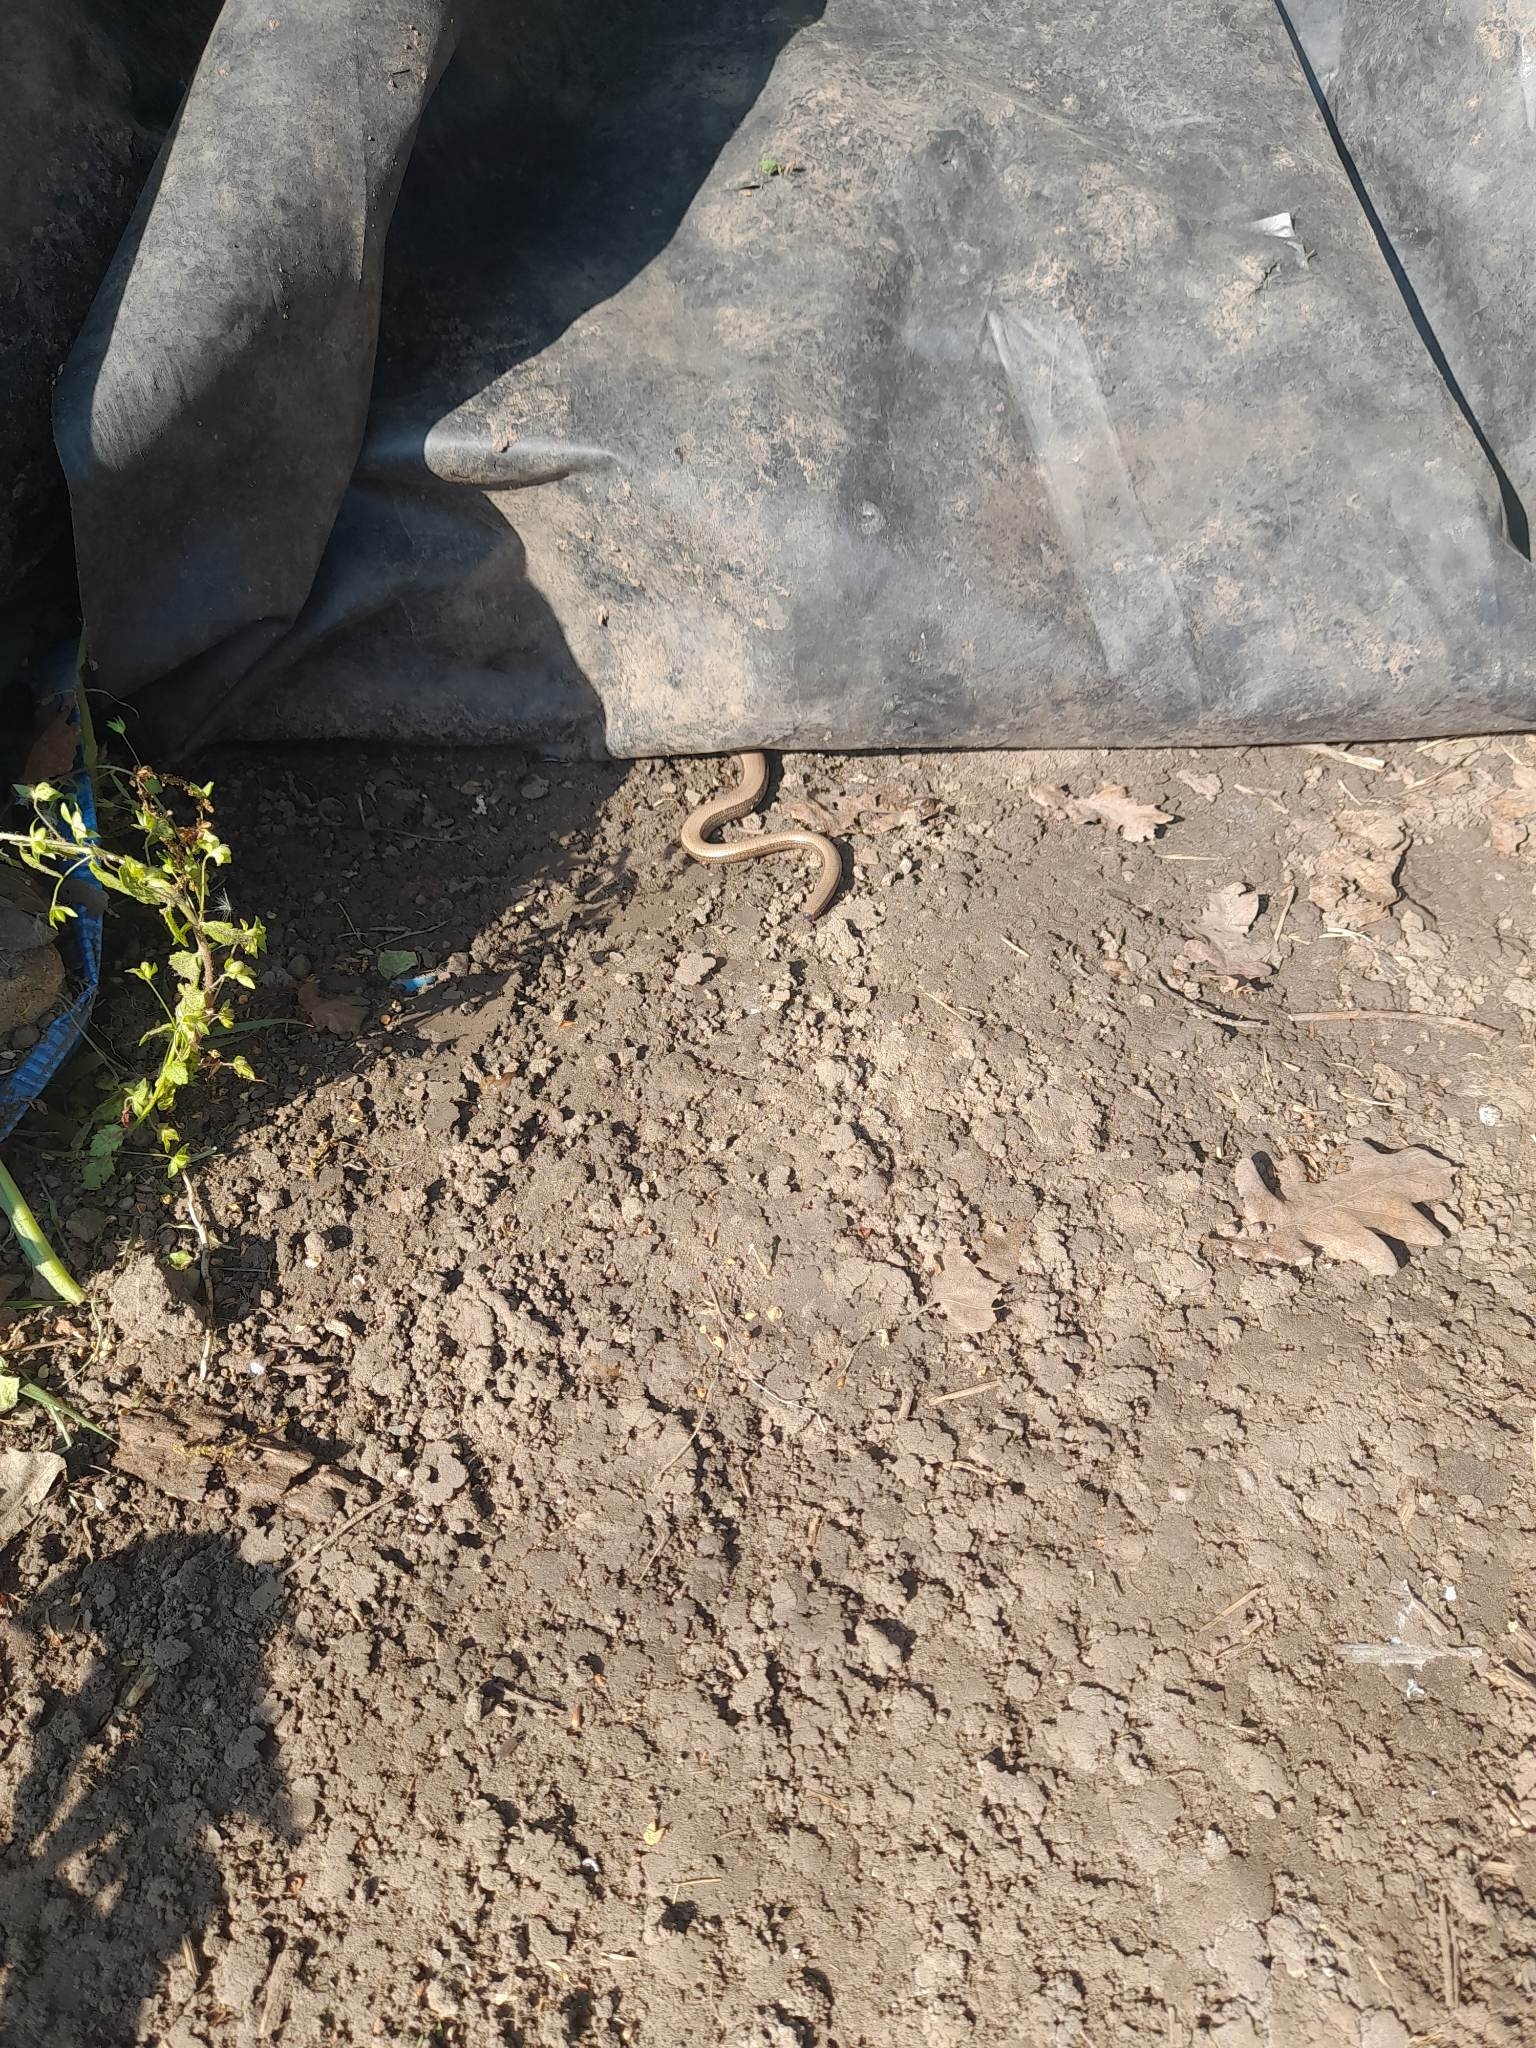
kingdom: Animalia
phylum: Chordata
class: Squamata
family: Anguidae
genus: Anguis
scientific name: Anguis fragilis
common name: Slow worm
